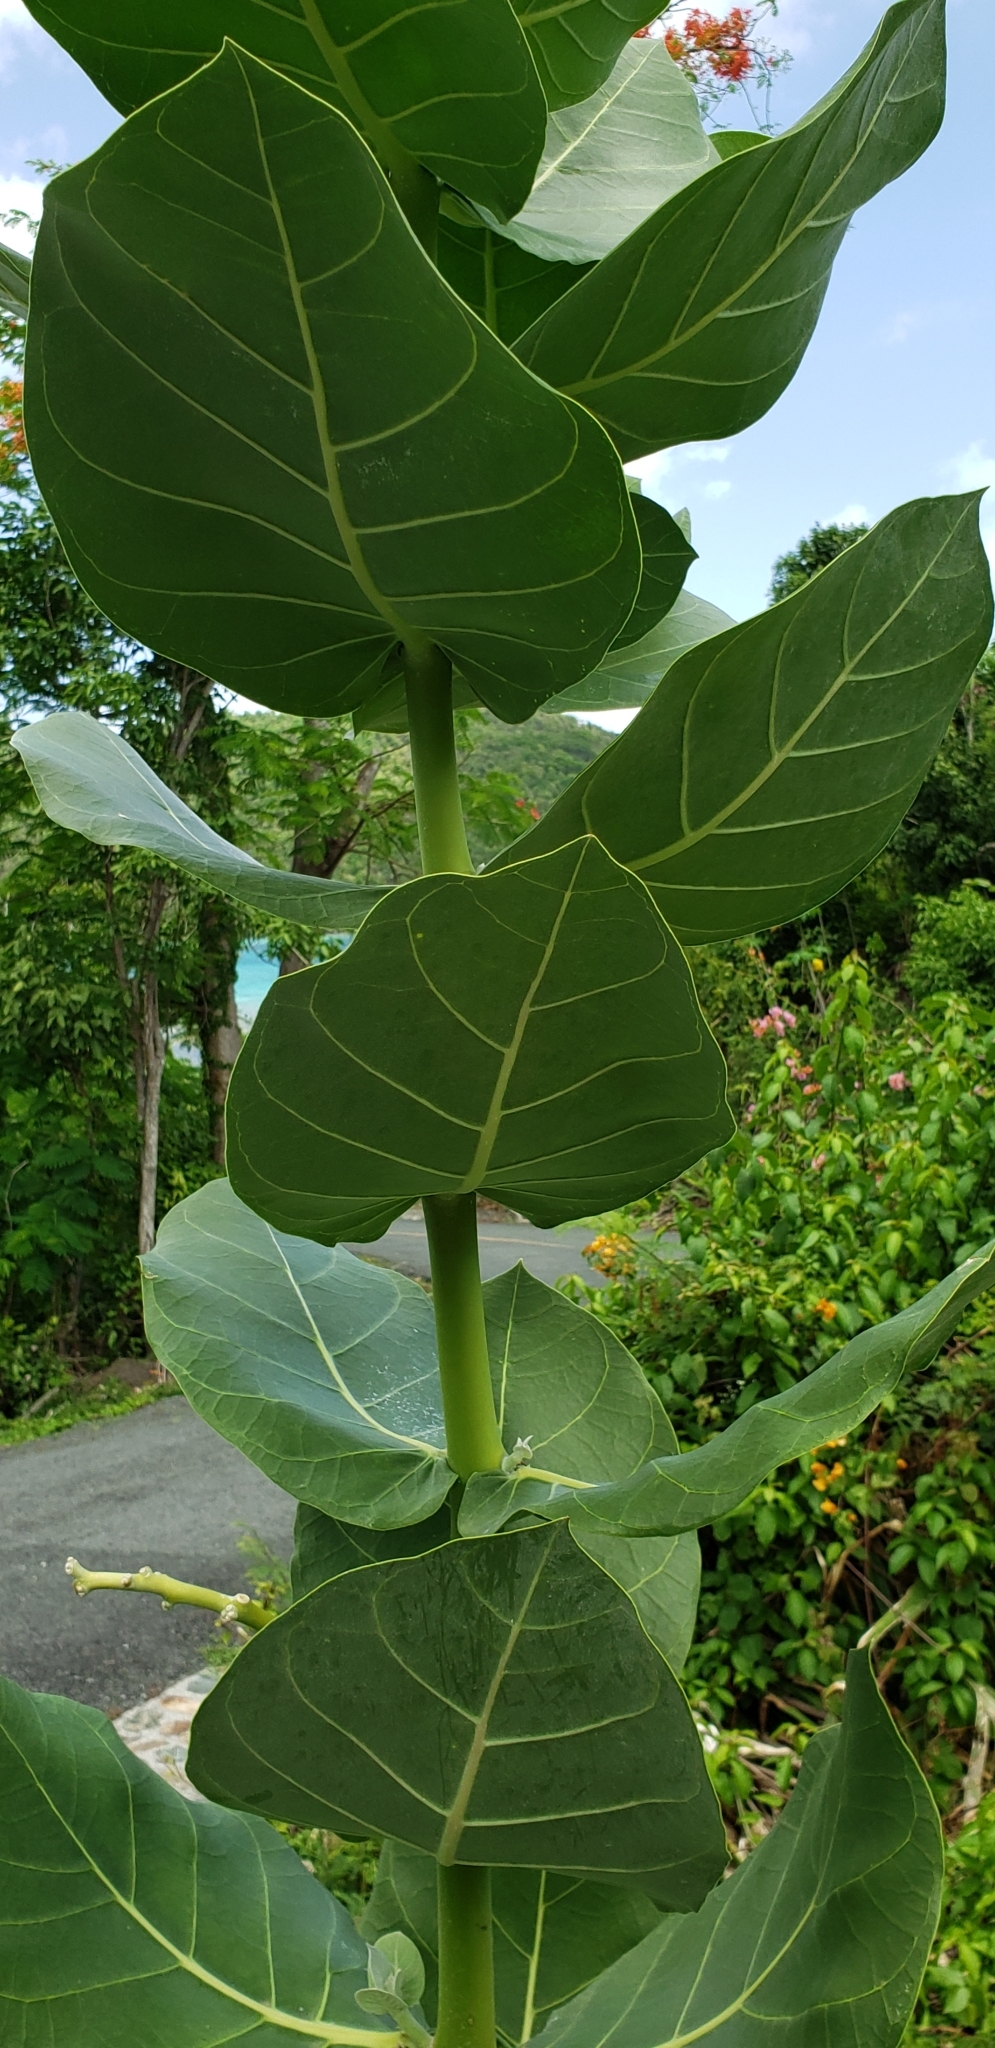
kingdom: Plantae
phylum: Tracheophyta
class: Magnoliopsida
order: Gentianales
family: Apocynaceae
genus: Calotropis
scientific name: Calotropis procera
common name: Roostertree
